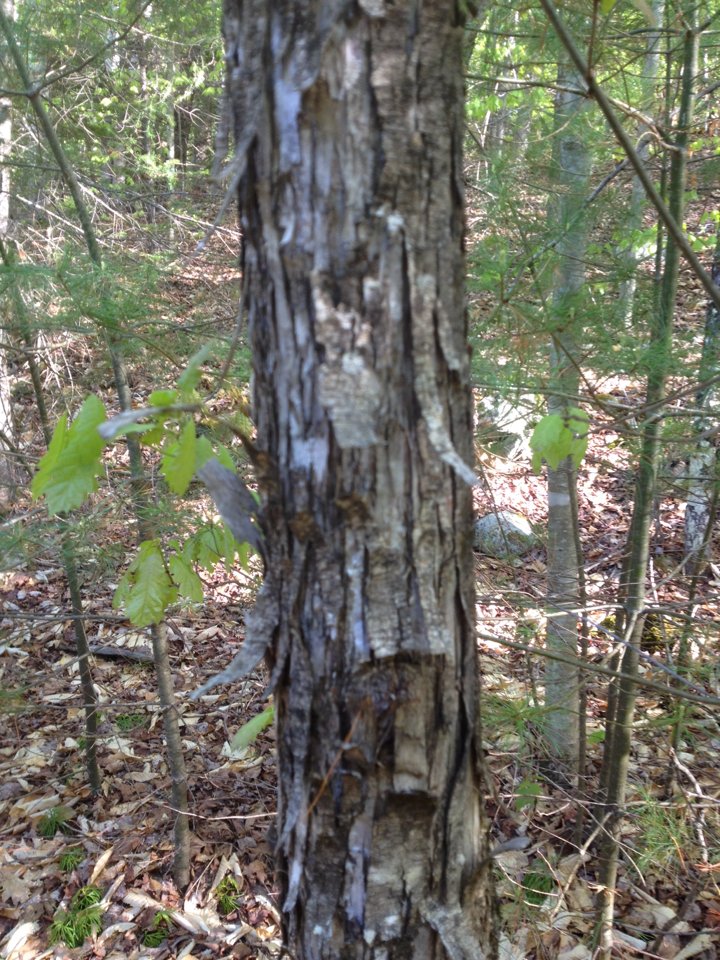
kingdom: Plantae
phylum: Tracheophyta
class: Magnoliopsida
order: Fagales
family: Betulaceae
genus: Ostrya
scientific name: Ostrya virginiana
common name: Ironwood
